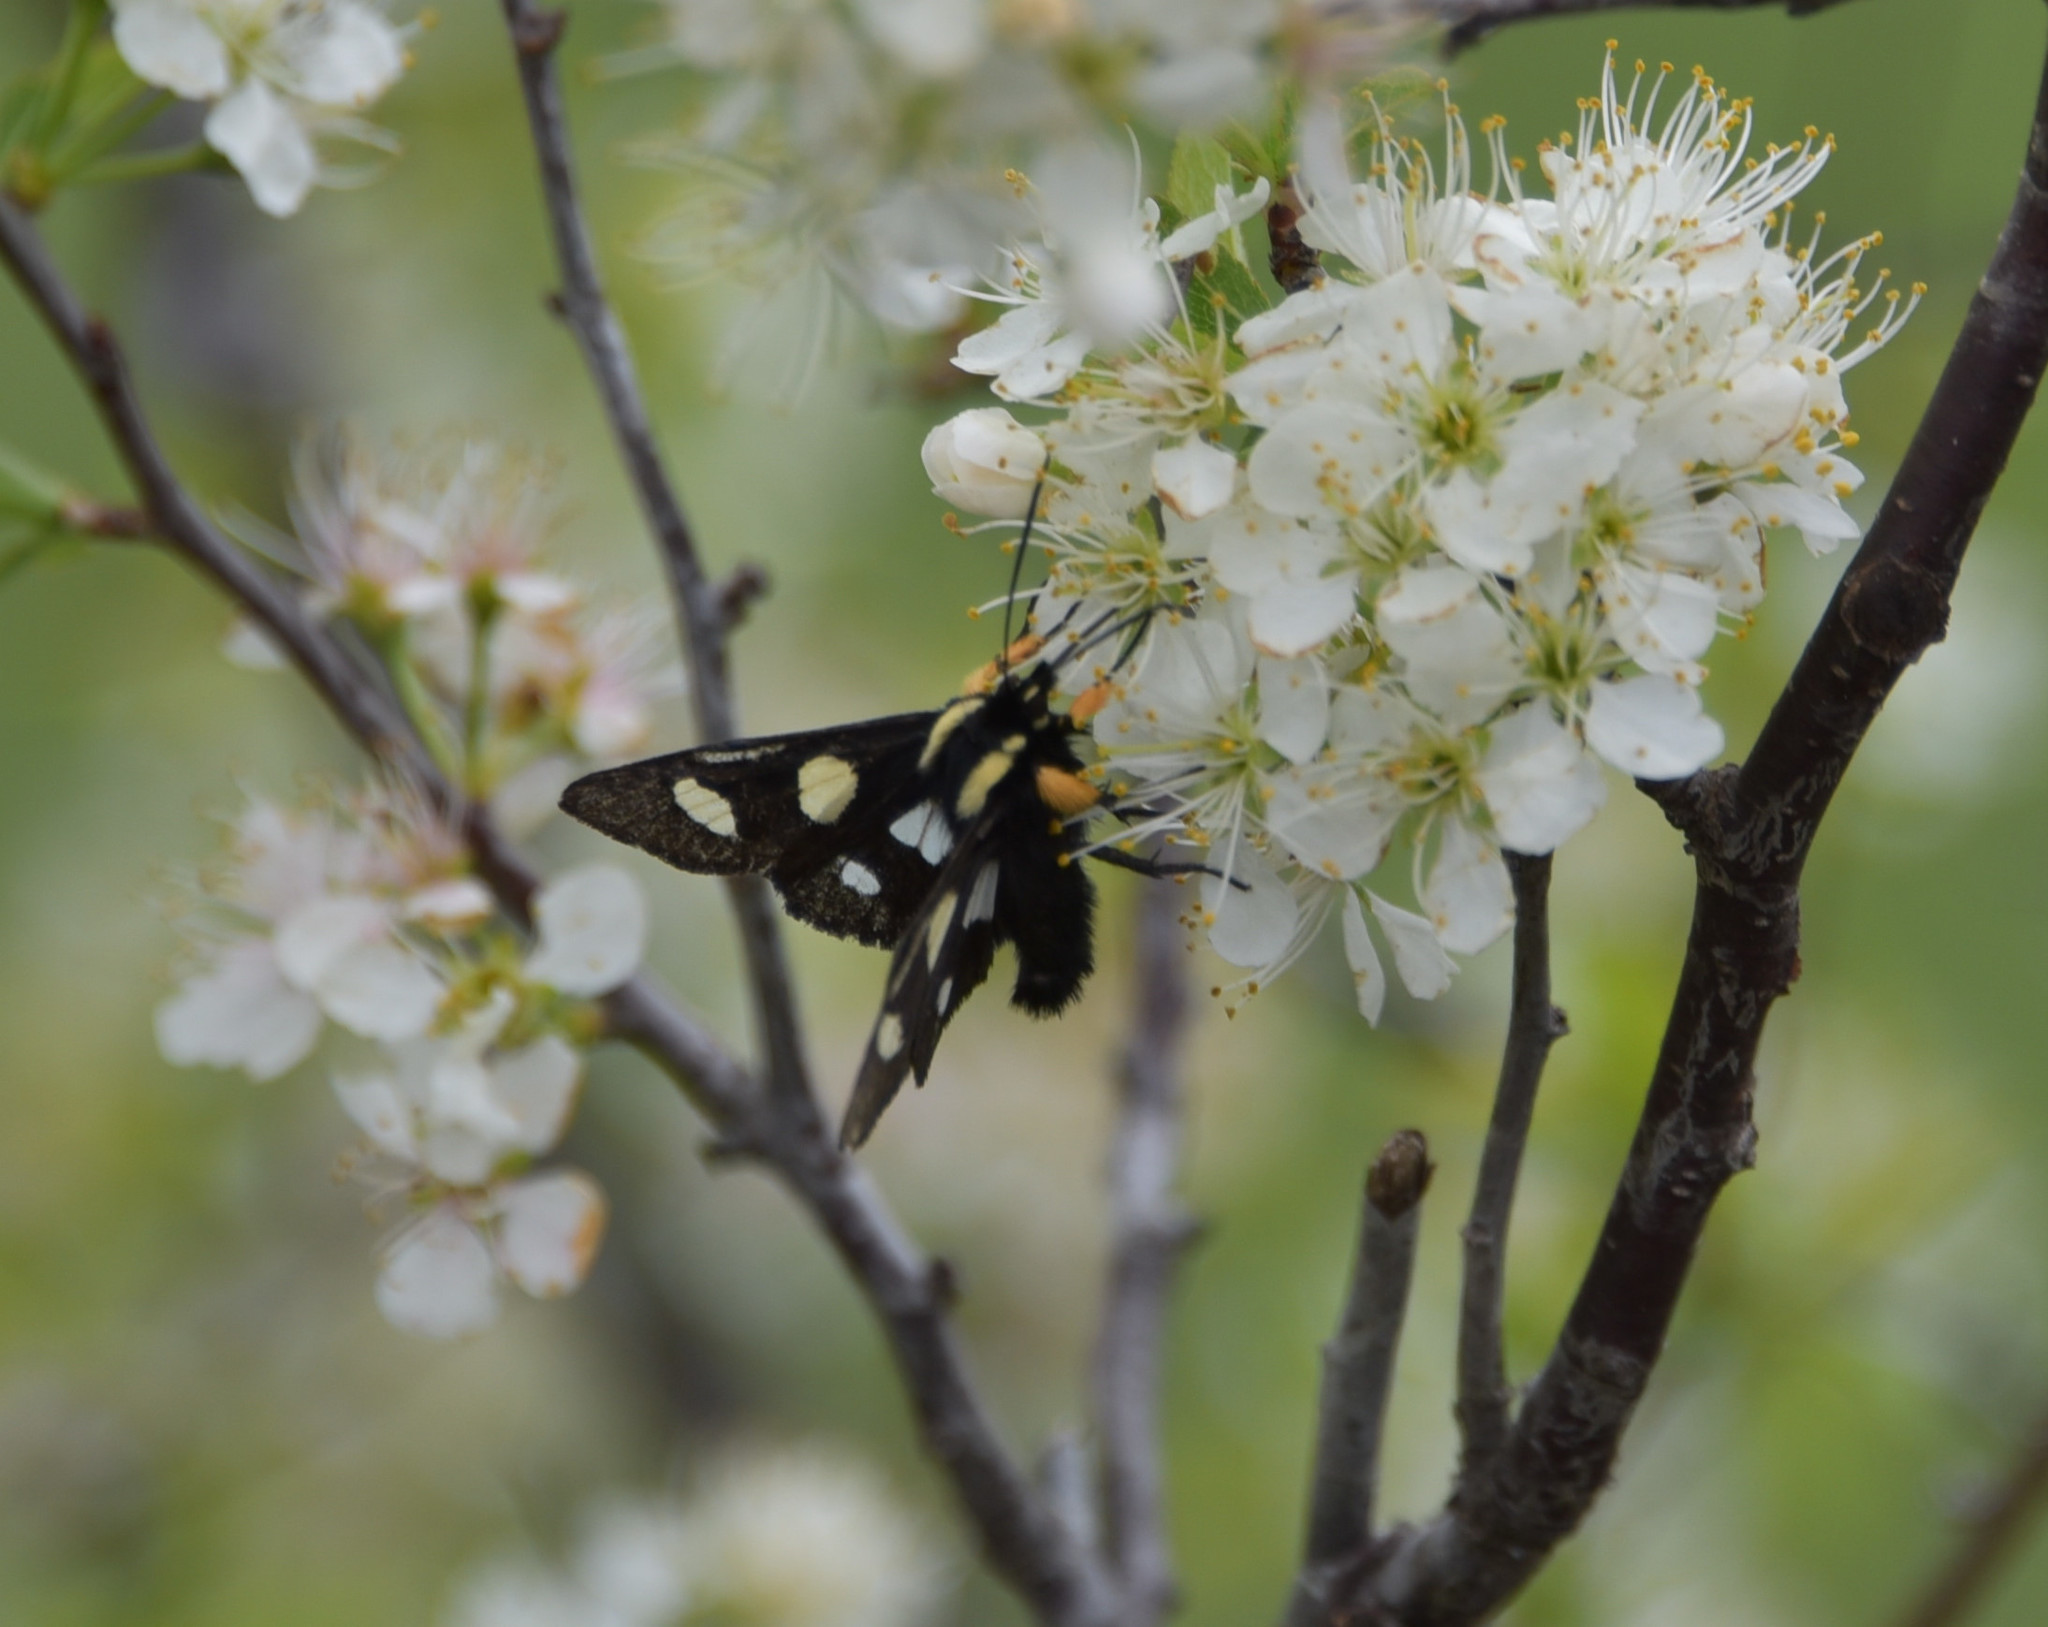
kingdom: Animalia
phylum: Arthropoda
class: Insecta
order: Lepidoptera
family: Noctuidae
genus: Alypia
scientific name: Alypia octomaculata
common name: Eight-spotted forester
